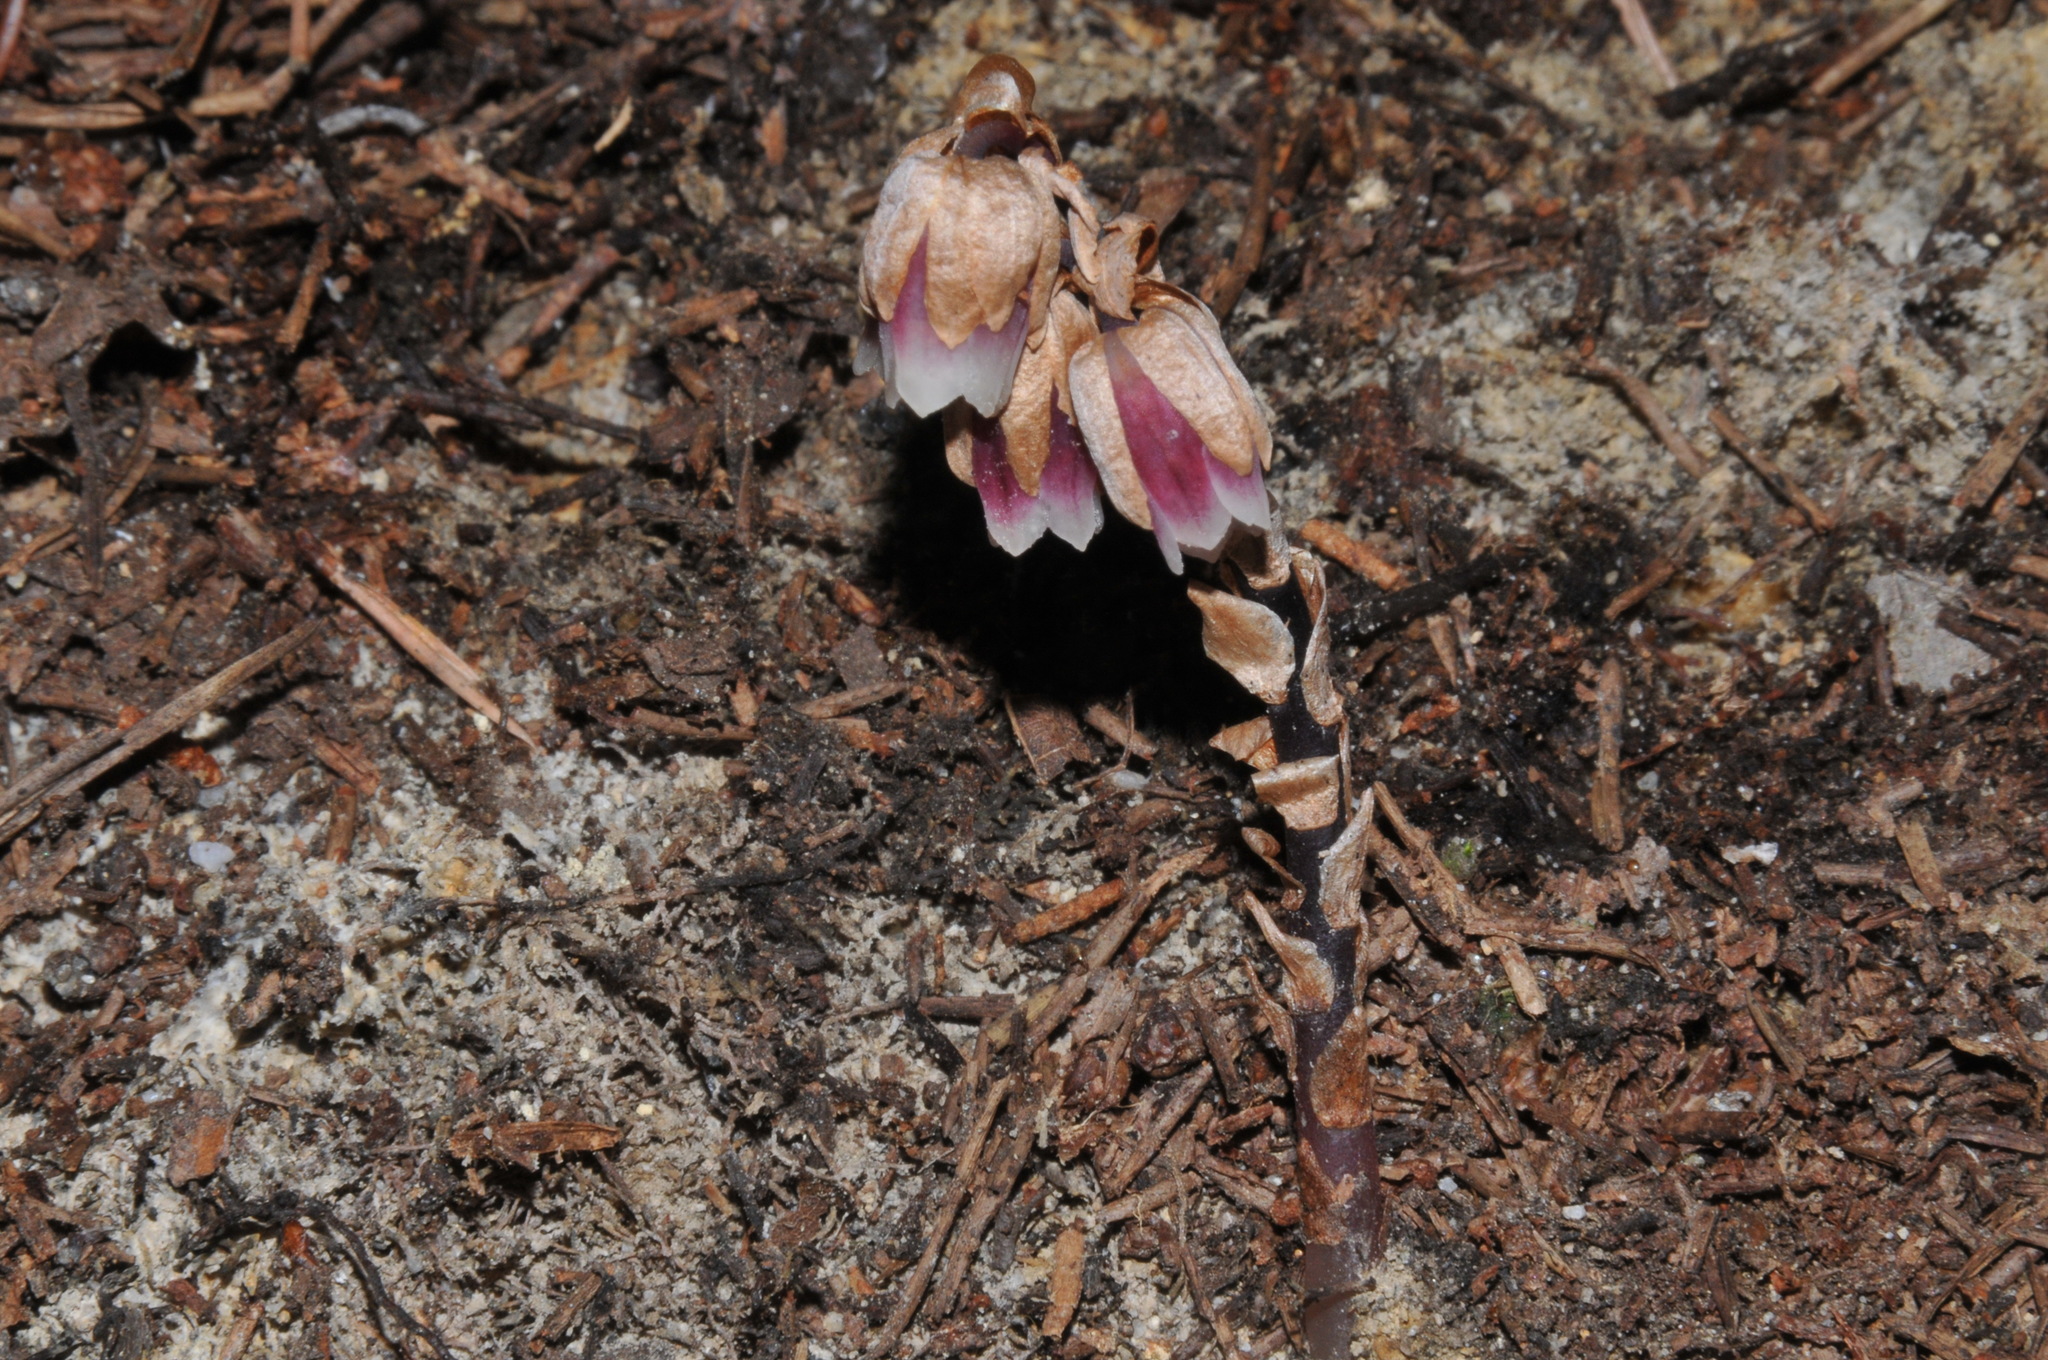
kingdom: Plantae
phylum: Tracheophyta
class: Magnoliopsida
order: Ericales
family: Ericaceae
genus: Monotropsis
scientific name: Monotropsis odorata
